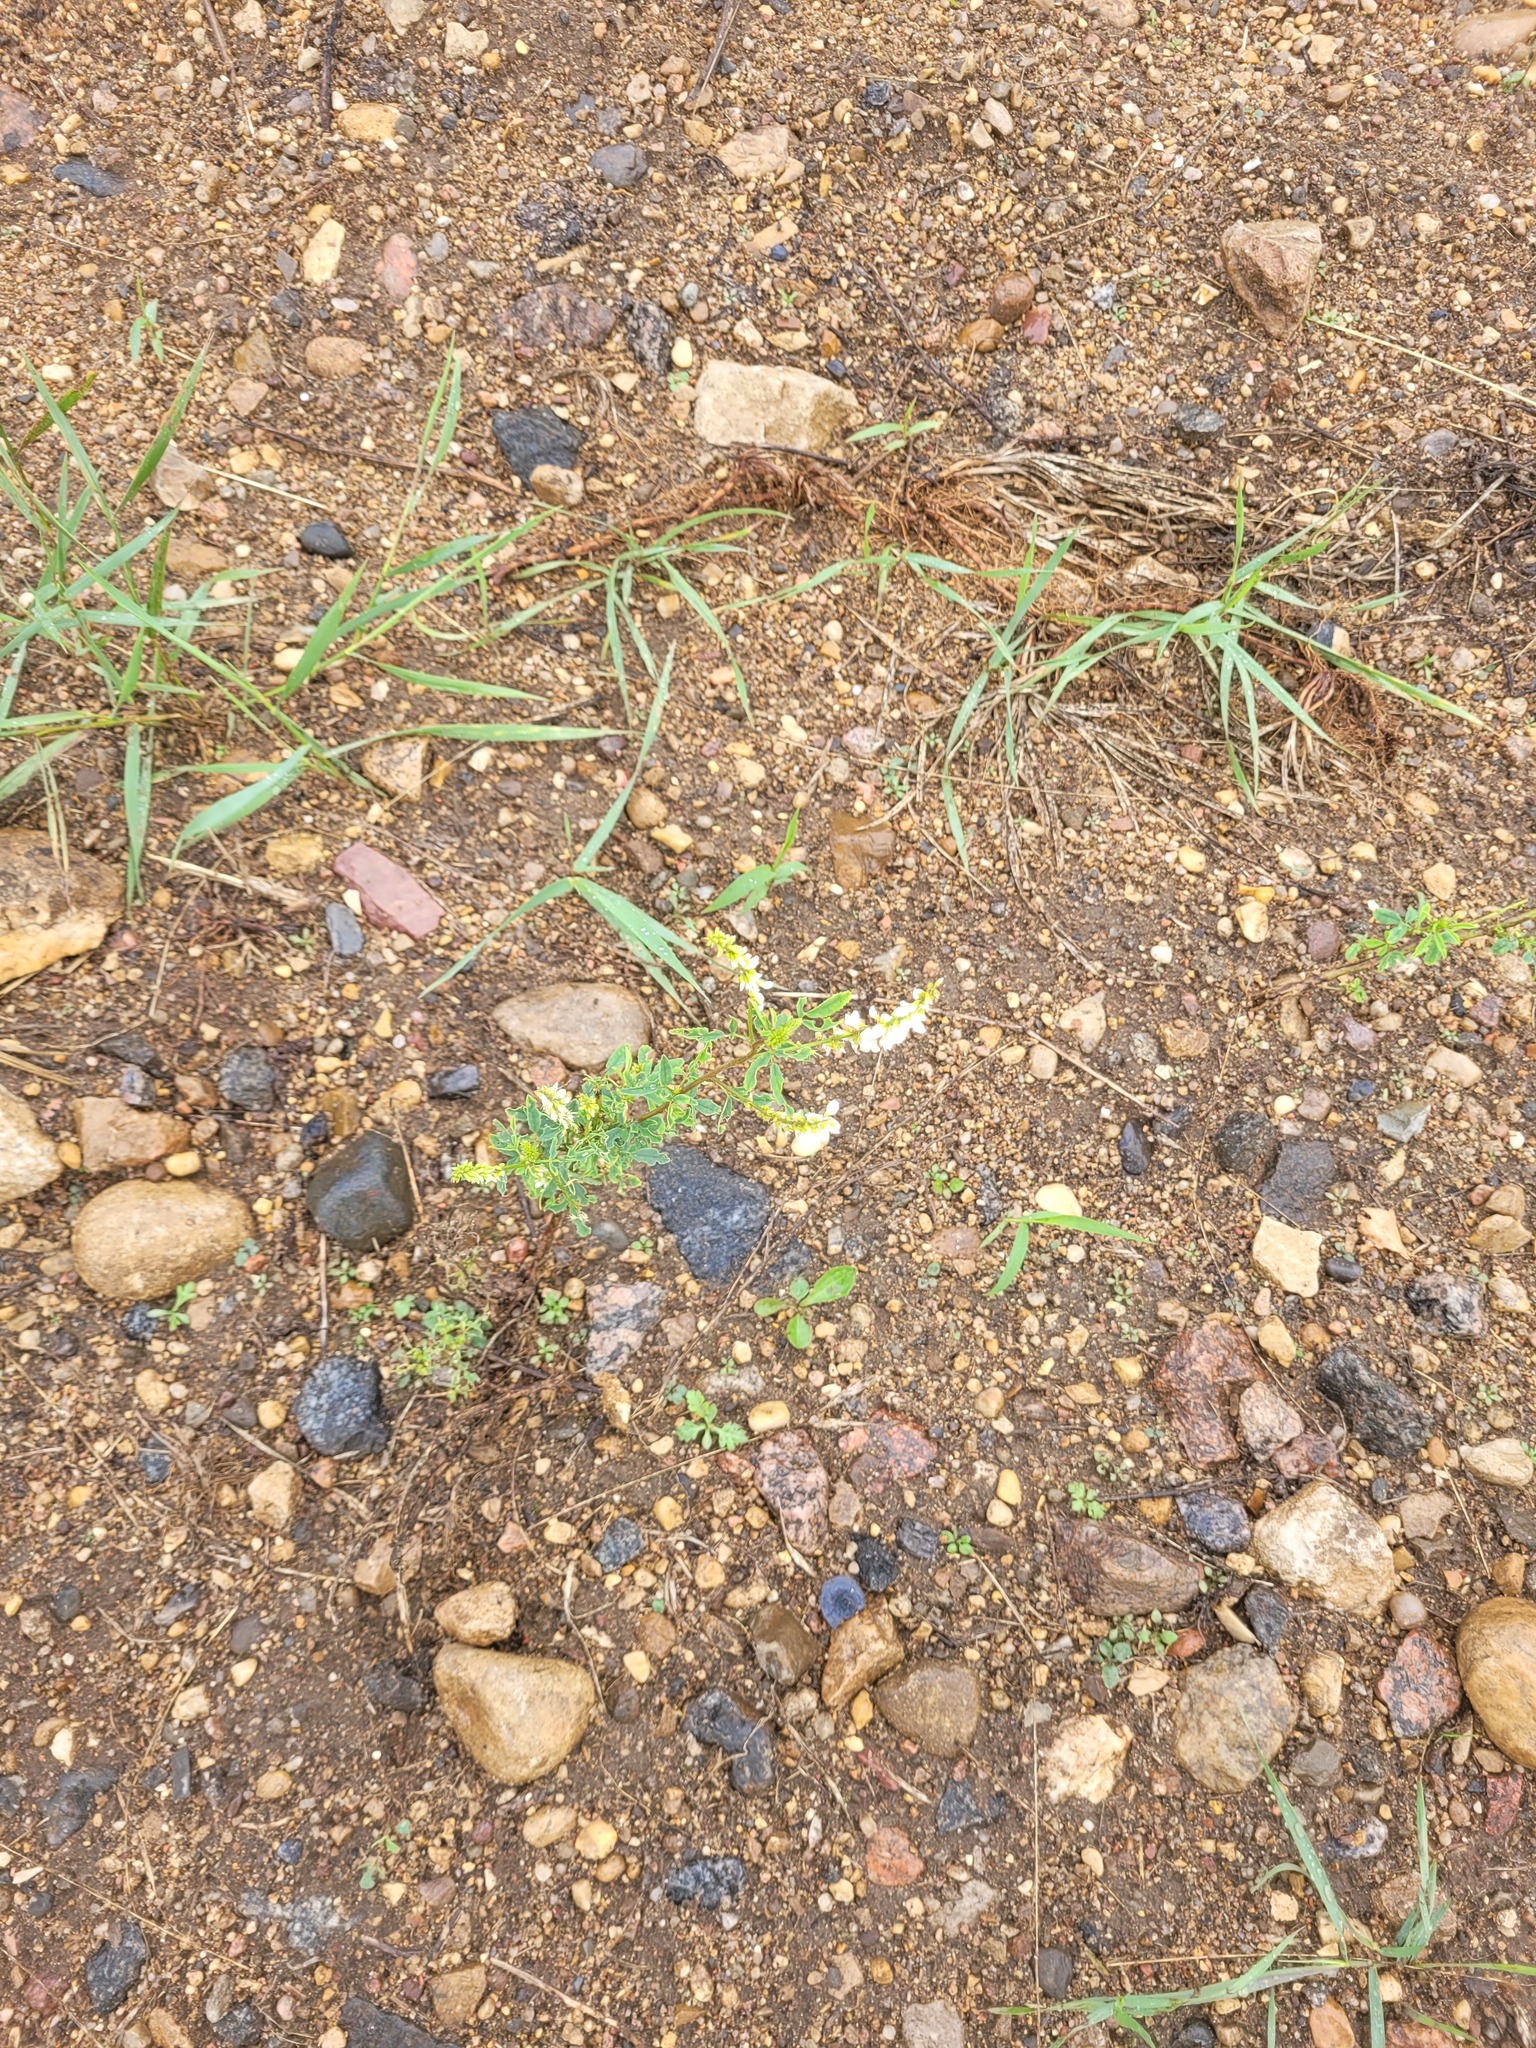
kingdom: Plantae
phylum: Tracheophyta
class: Magnoliopsida
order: Fabales
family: Fabaceae
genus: Melilotus
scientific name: Melilotus albus
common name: White melilot
